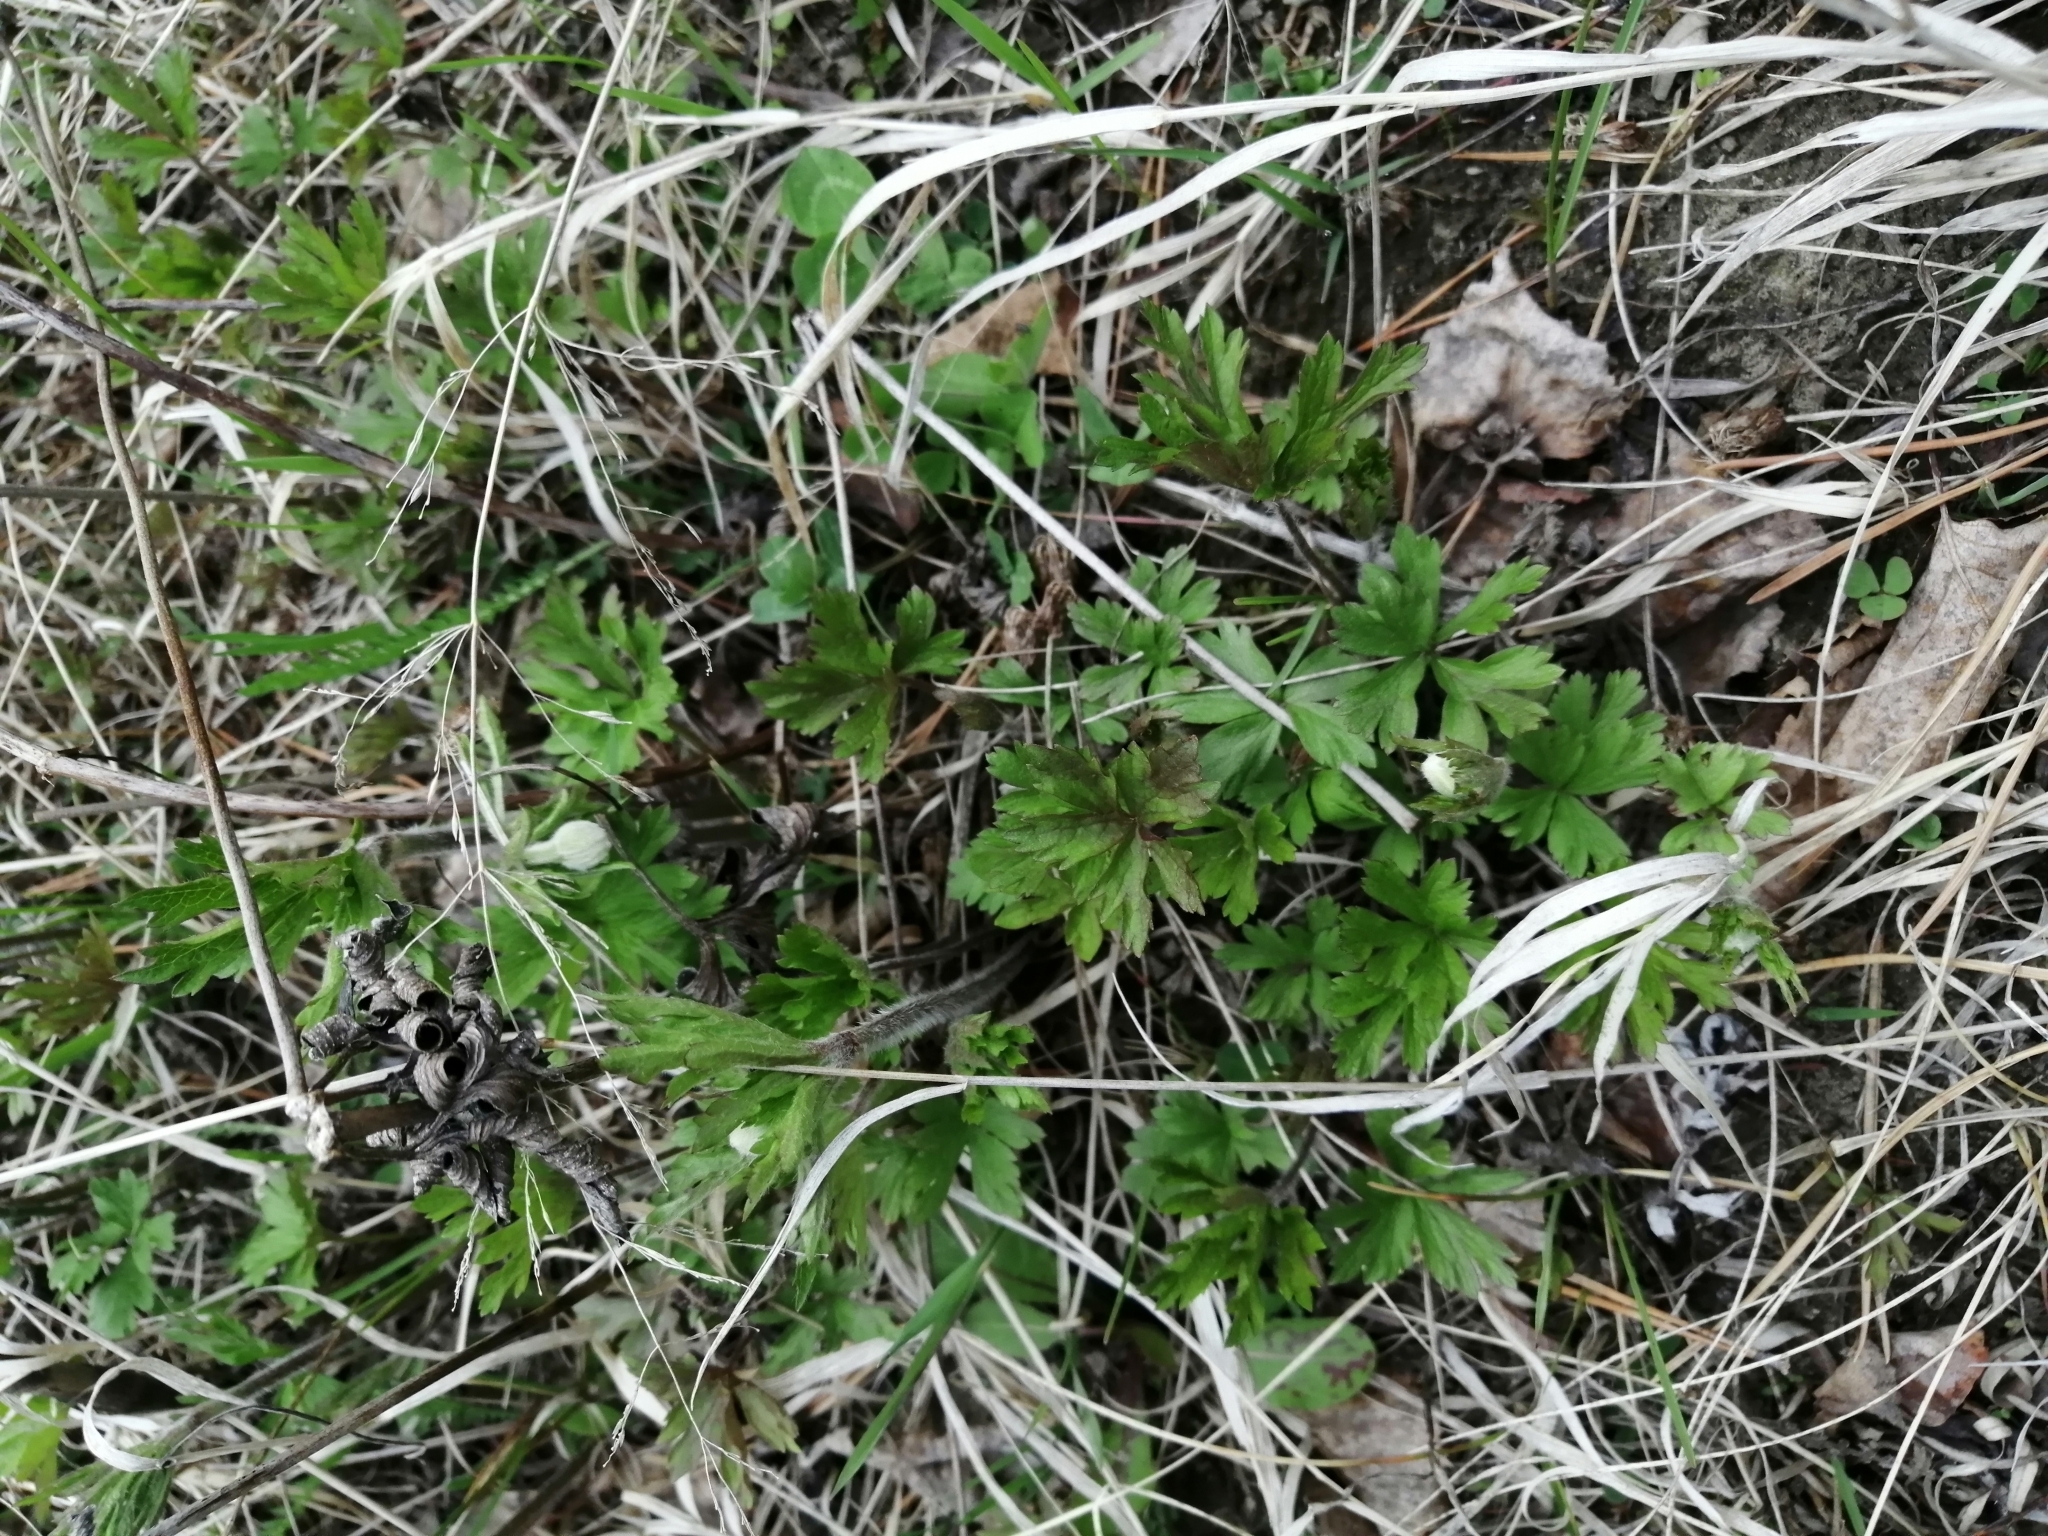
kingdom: Plantae
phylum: Tracheophyta
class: Magnoliopsida
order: Ranunculales
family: Ranunculaceae
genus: Anemone
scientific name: Anemone sylvestris
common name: Snowdrop anemone
